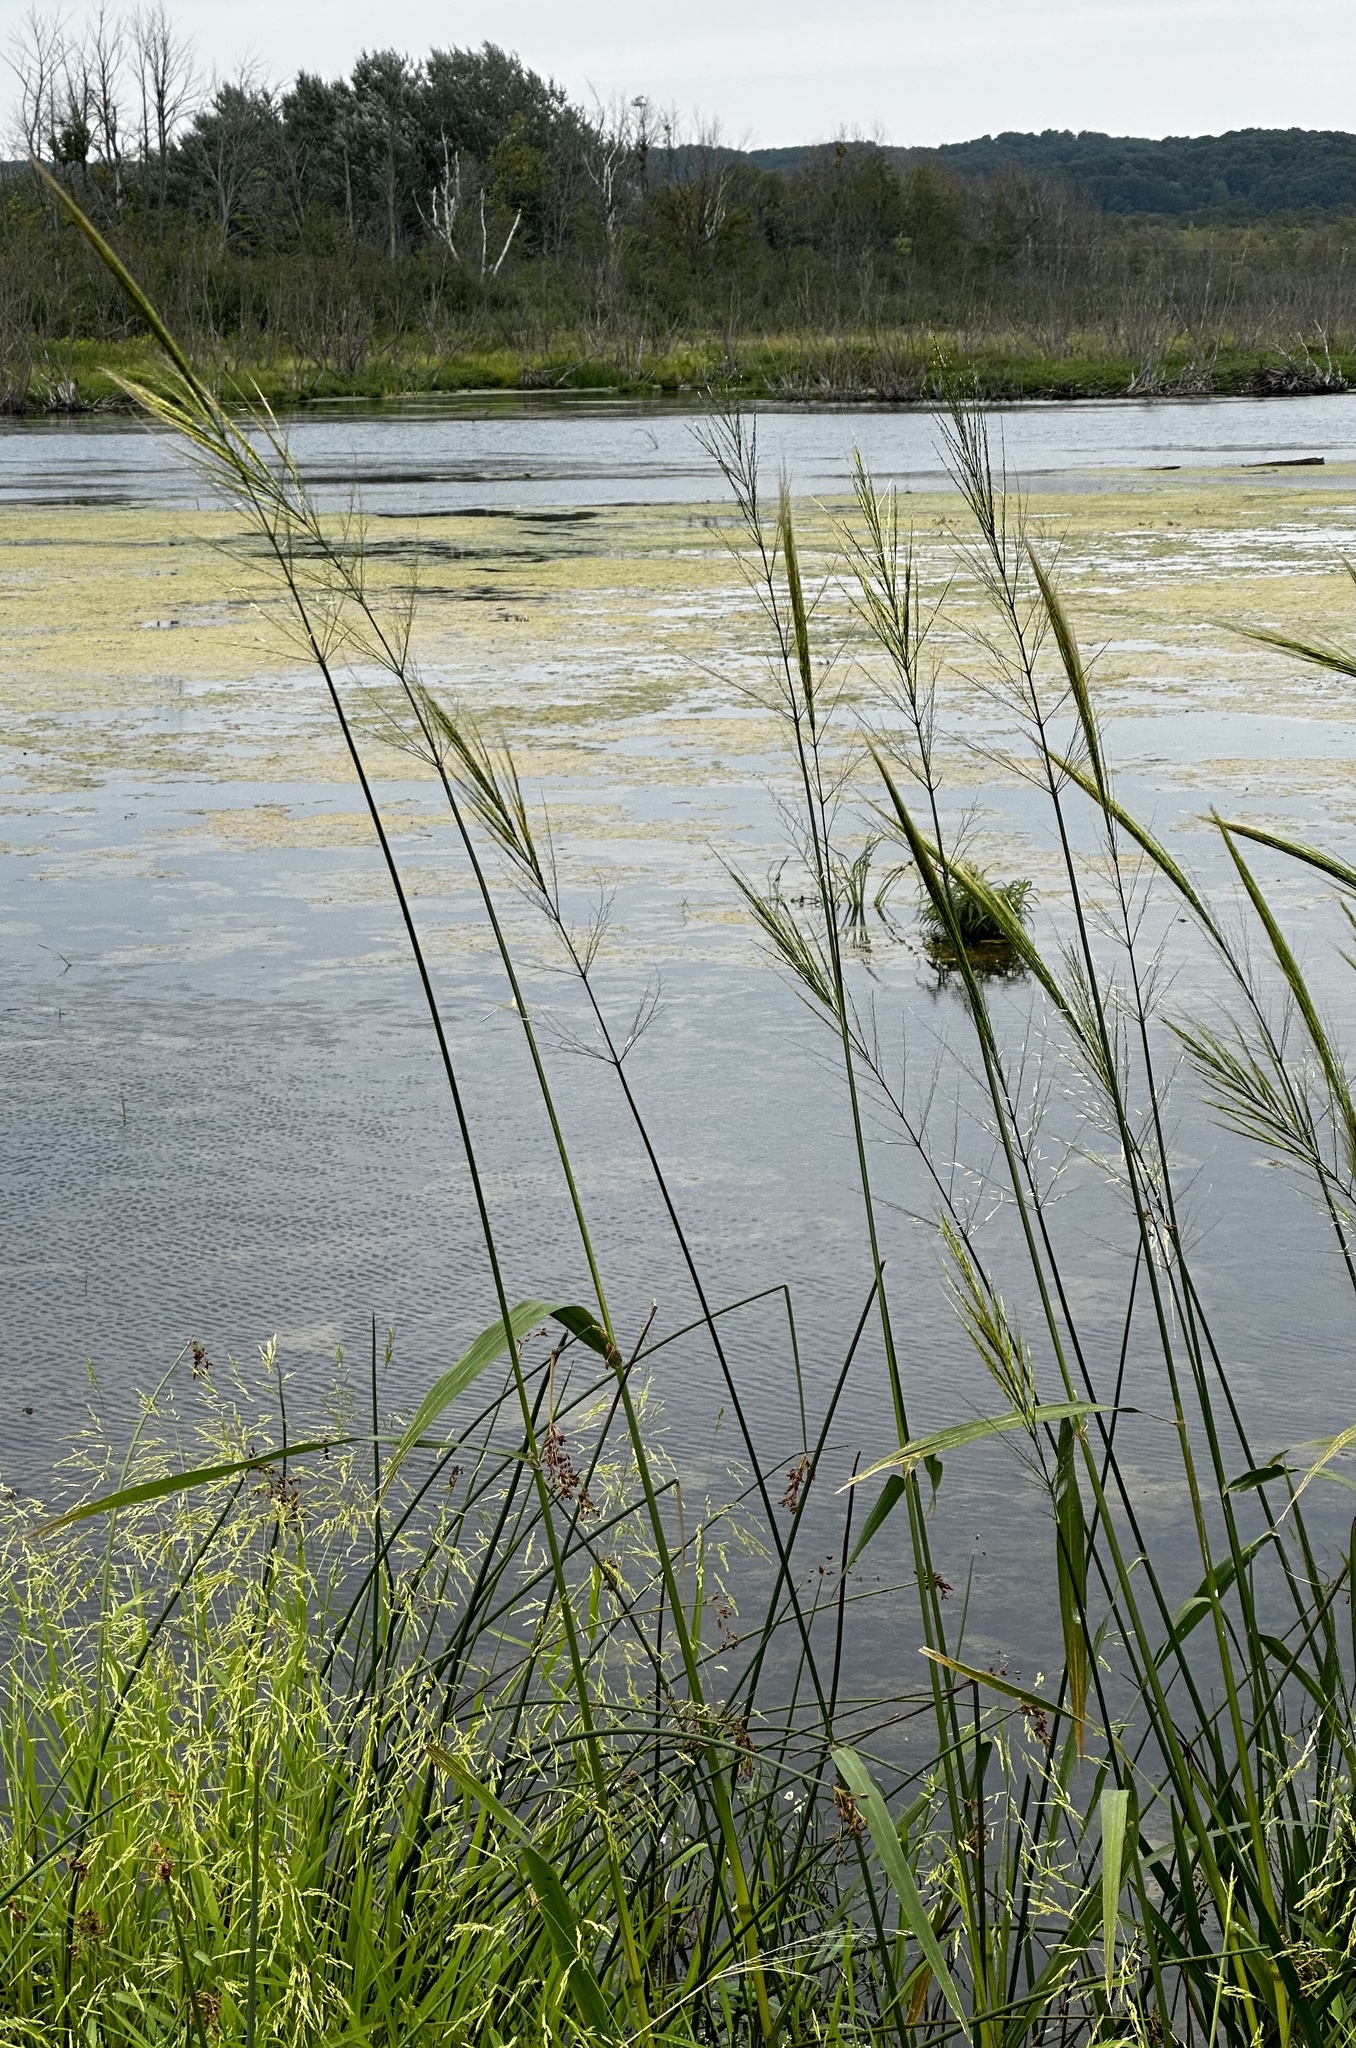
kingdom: Plantae
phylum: Tracheophyta
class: Liliopsida
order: Poales
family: Poaceae
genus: Zizania
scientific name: Zizania aquatica
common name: Annual wildrice
